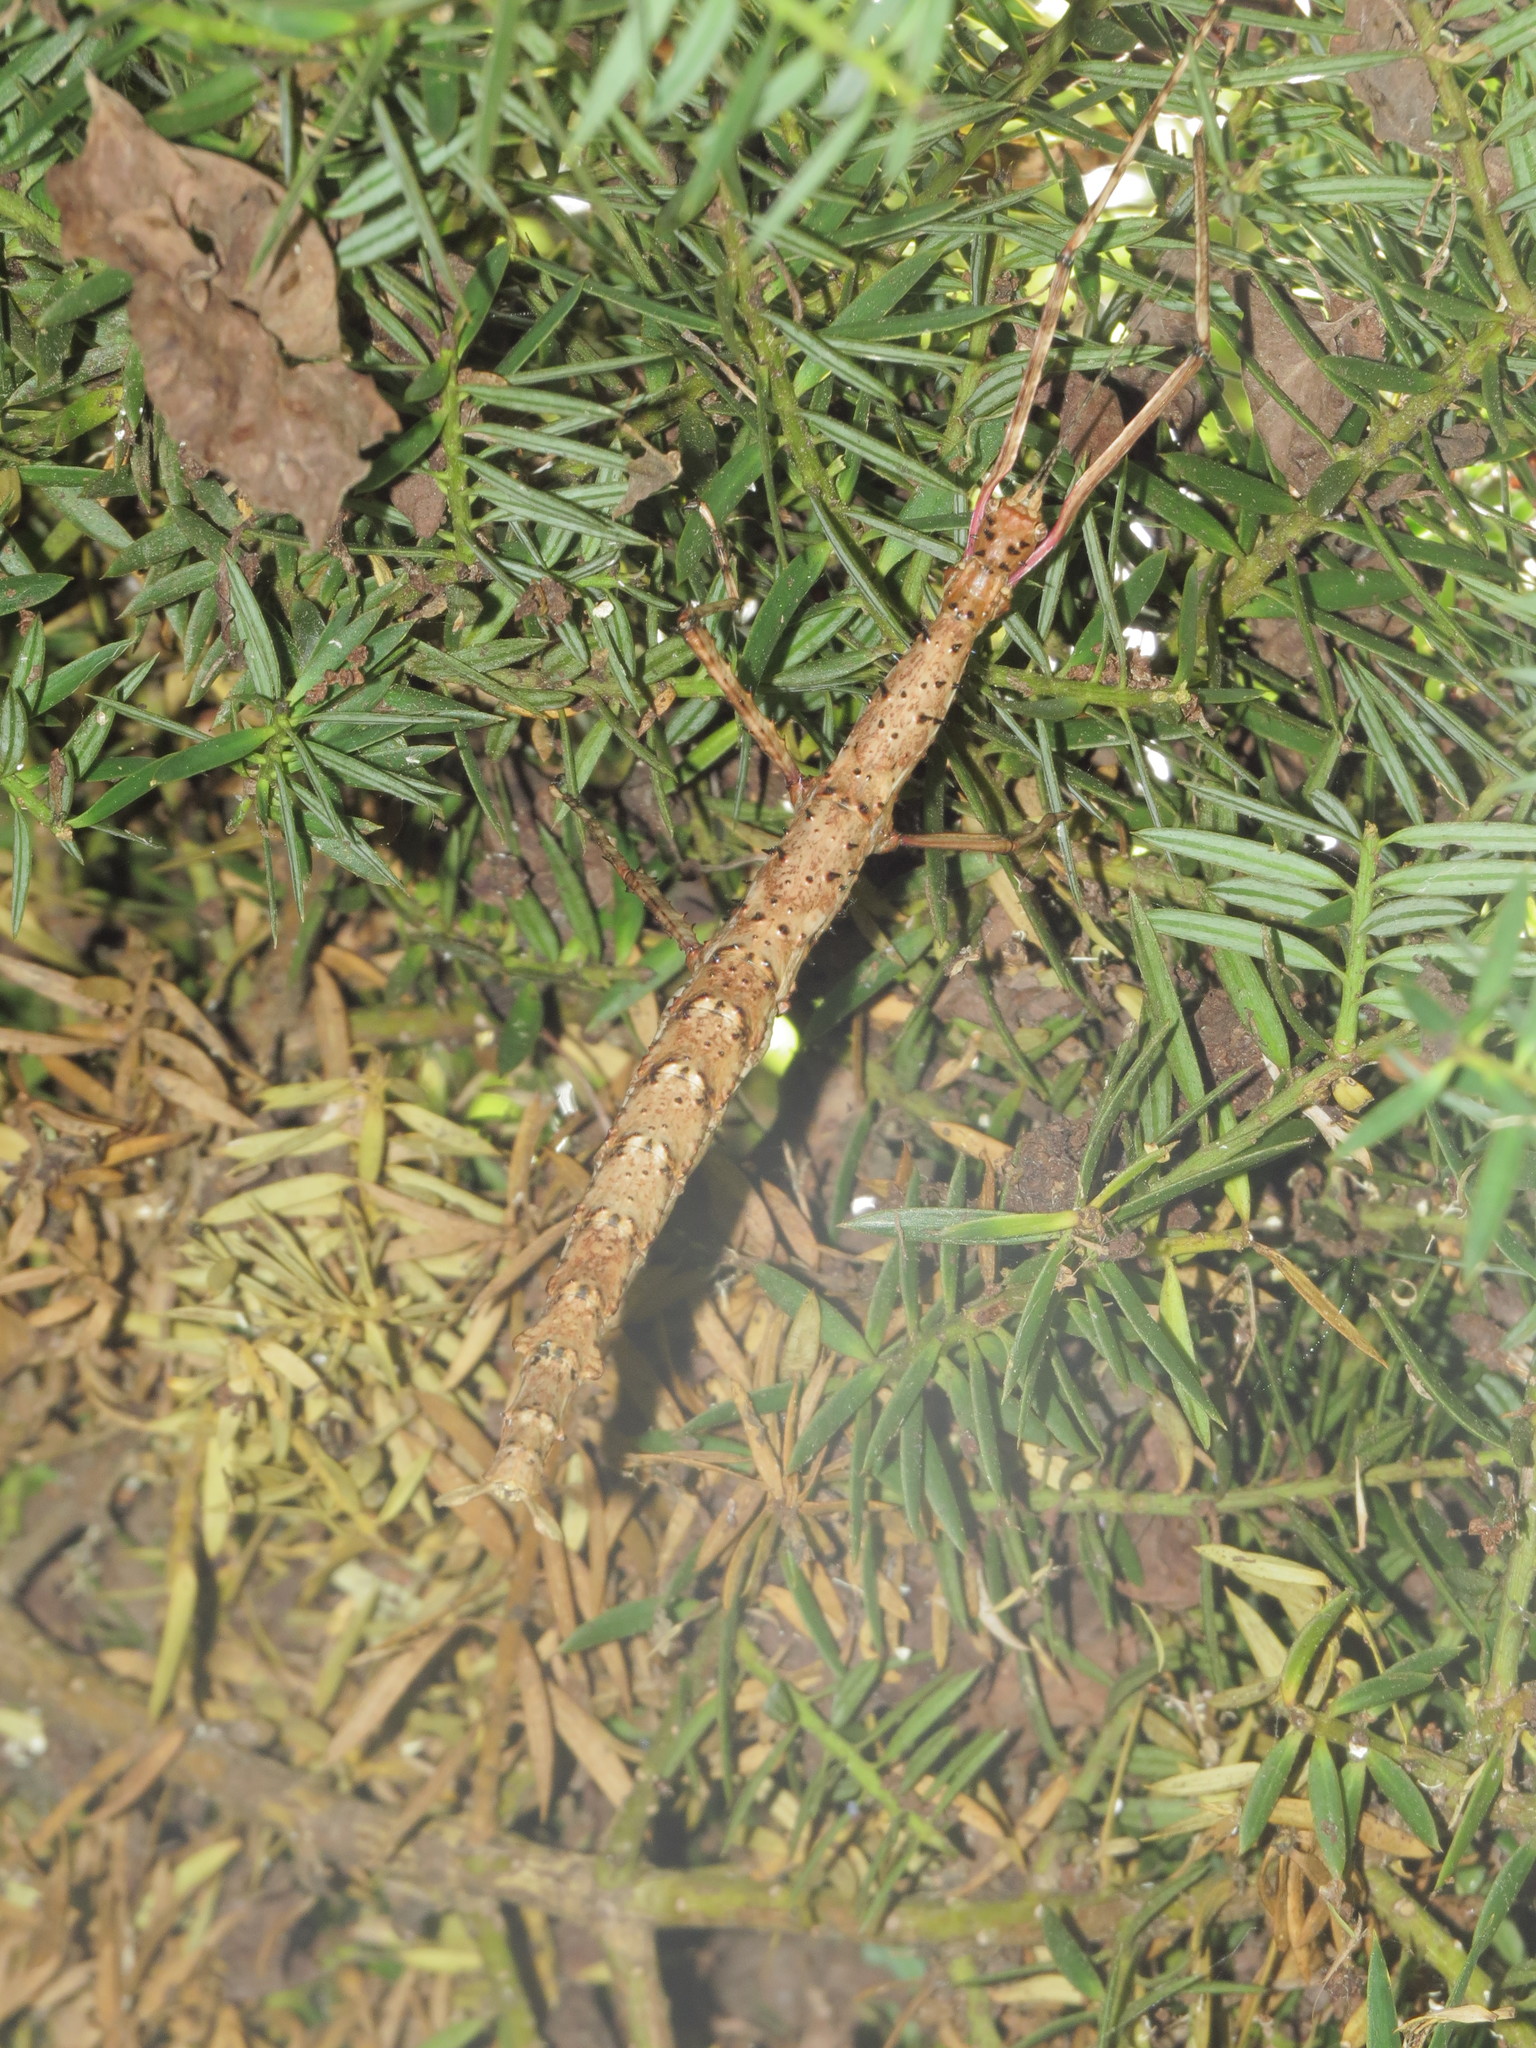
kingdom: Animalia
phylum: Arthropoda
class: Insecta
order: Phasmida
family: Phasmatidae
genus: Acanthoxyla
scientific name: Acanthoxyla geisovii
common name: Prickly stick insect
